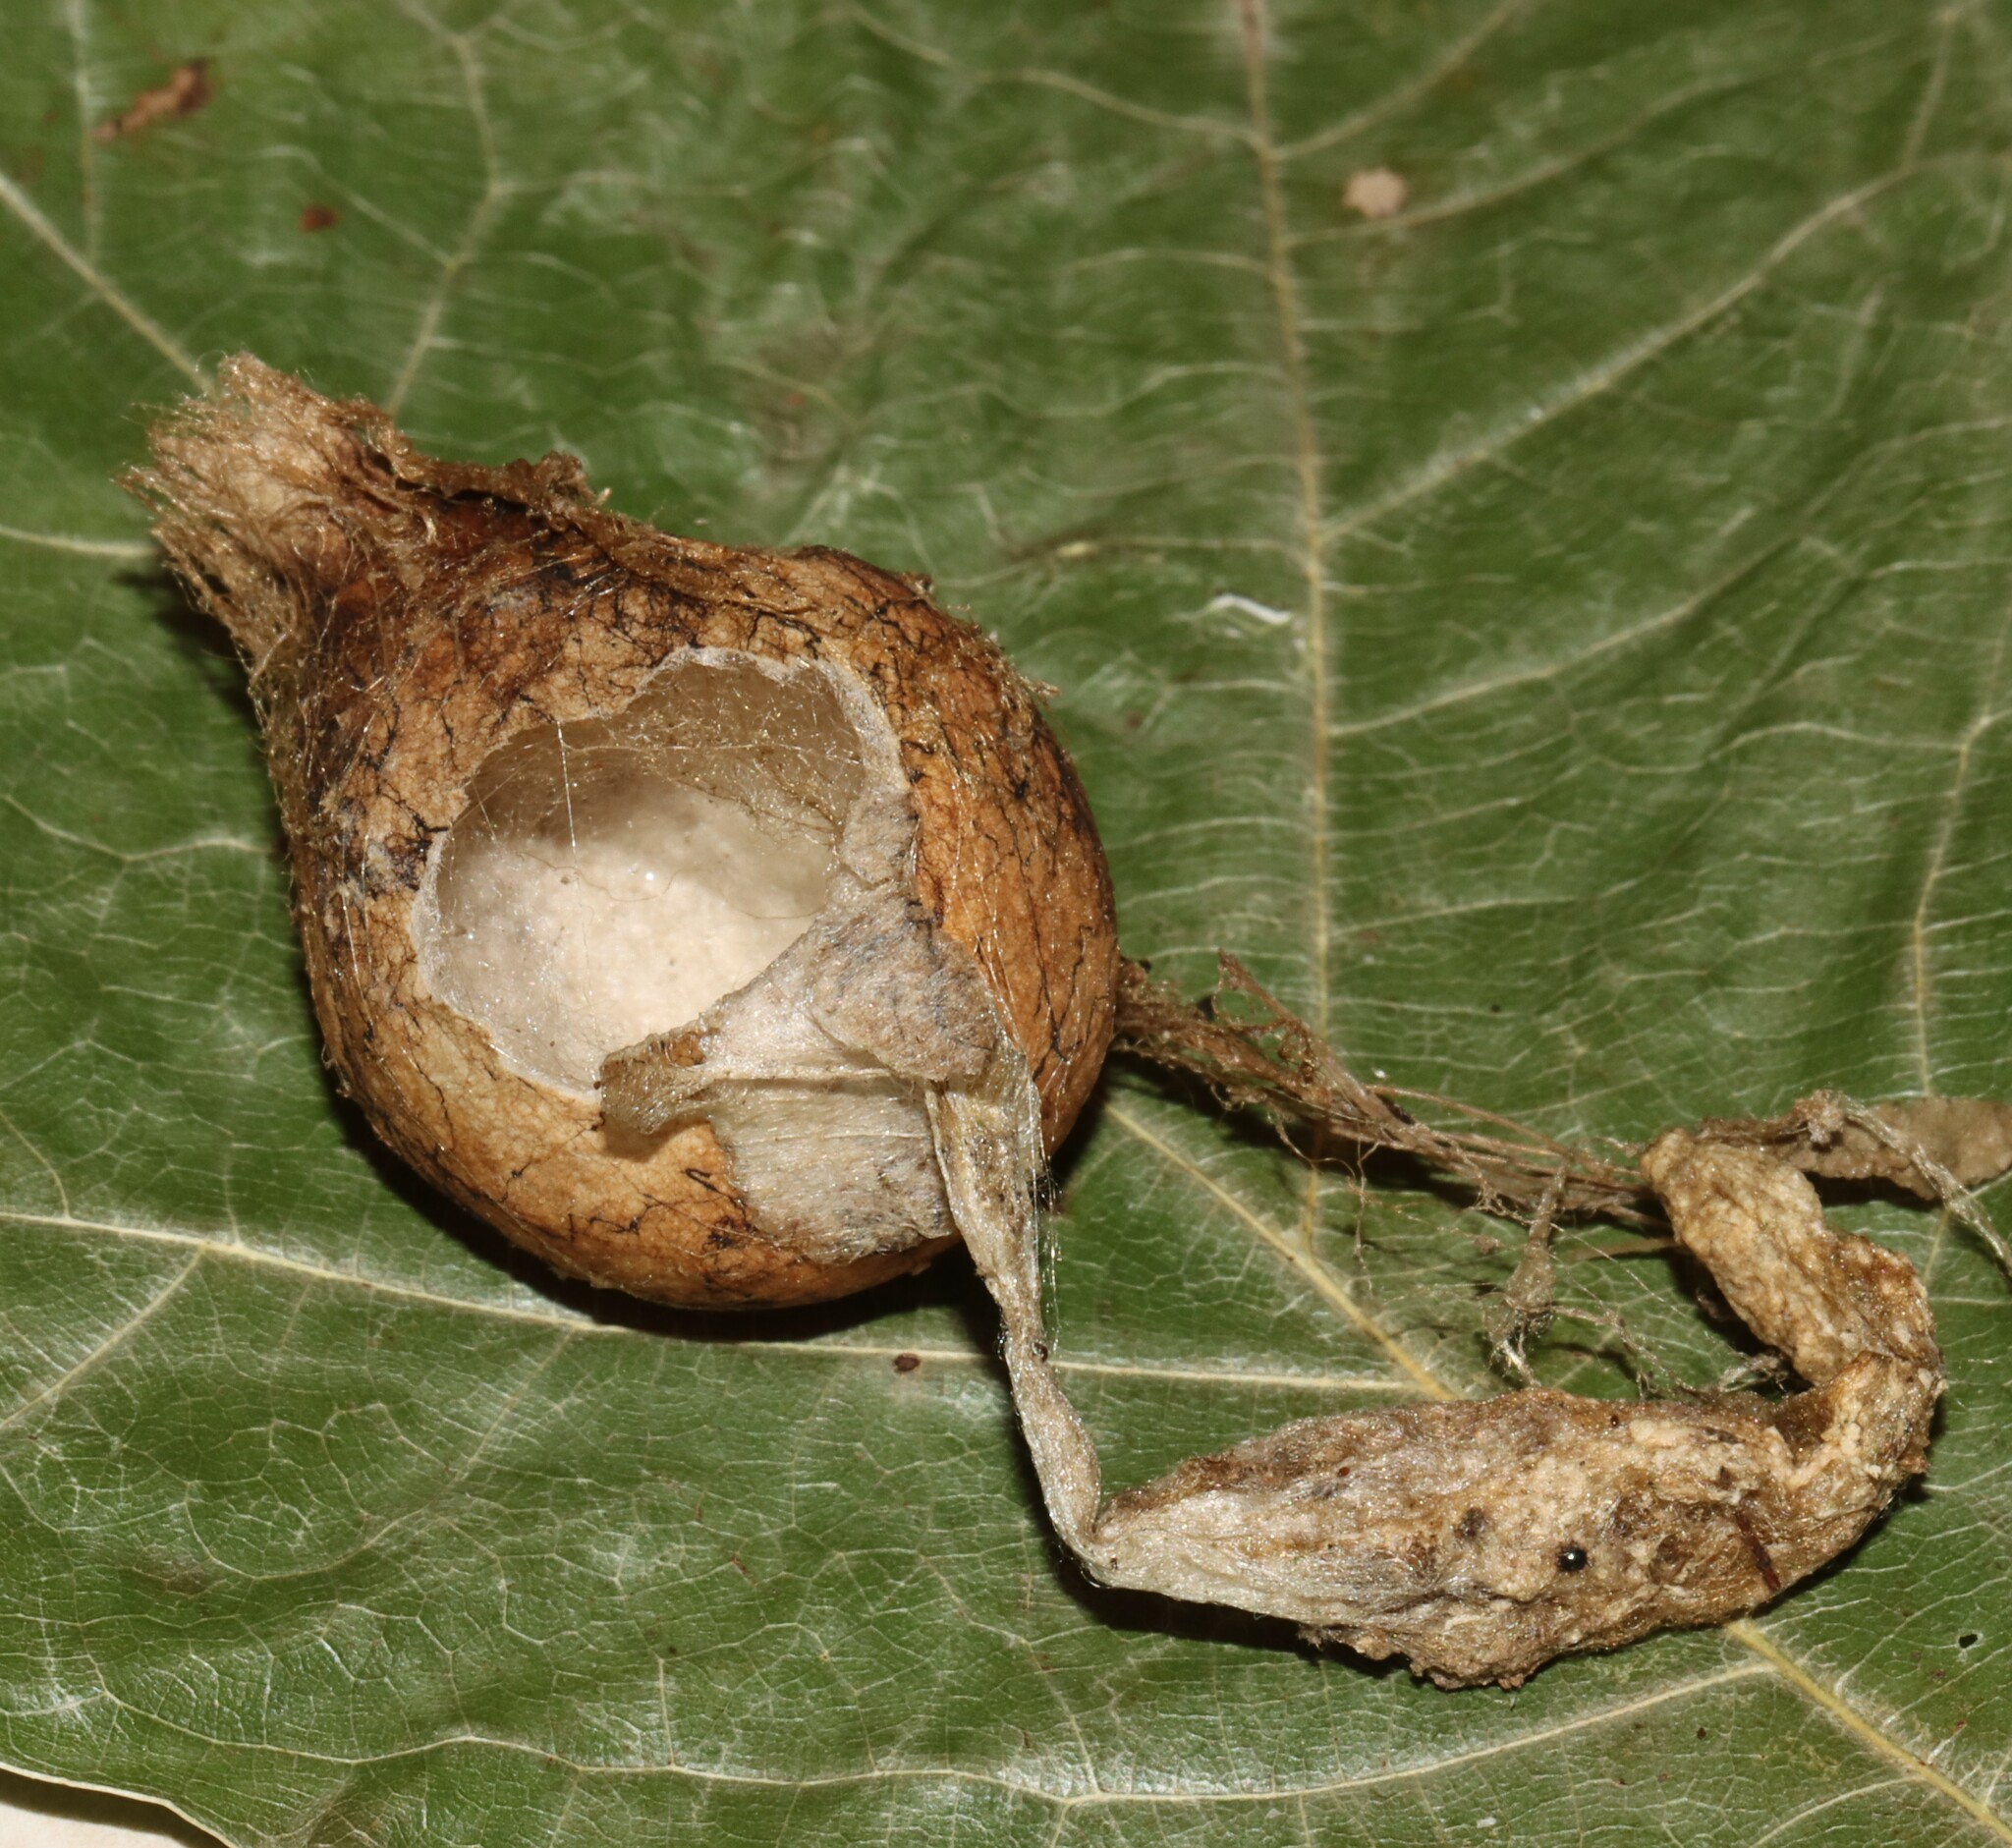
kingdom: Animalia
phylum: Arthropoda
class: Arachnida
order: Araneae
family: Araneidae
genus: Argiope
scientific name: Argiope aurantia
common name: Orb weavers
